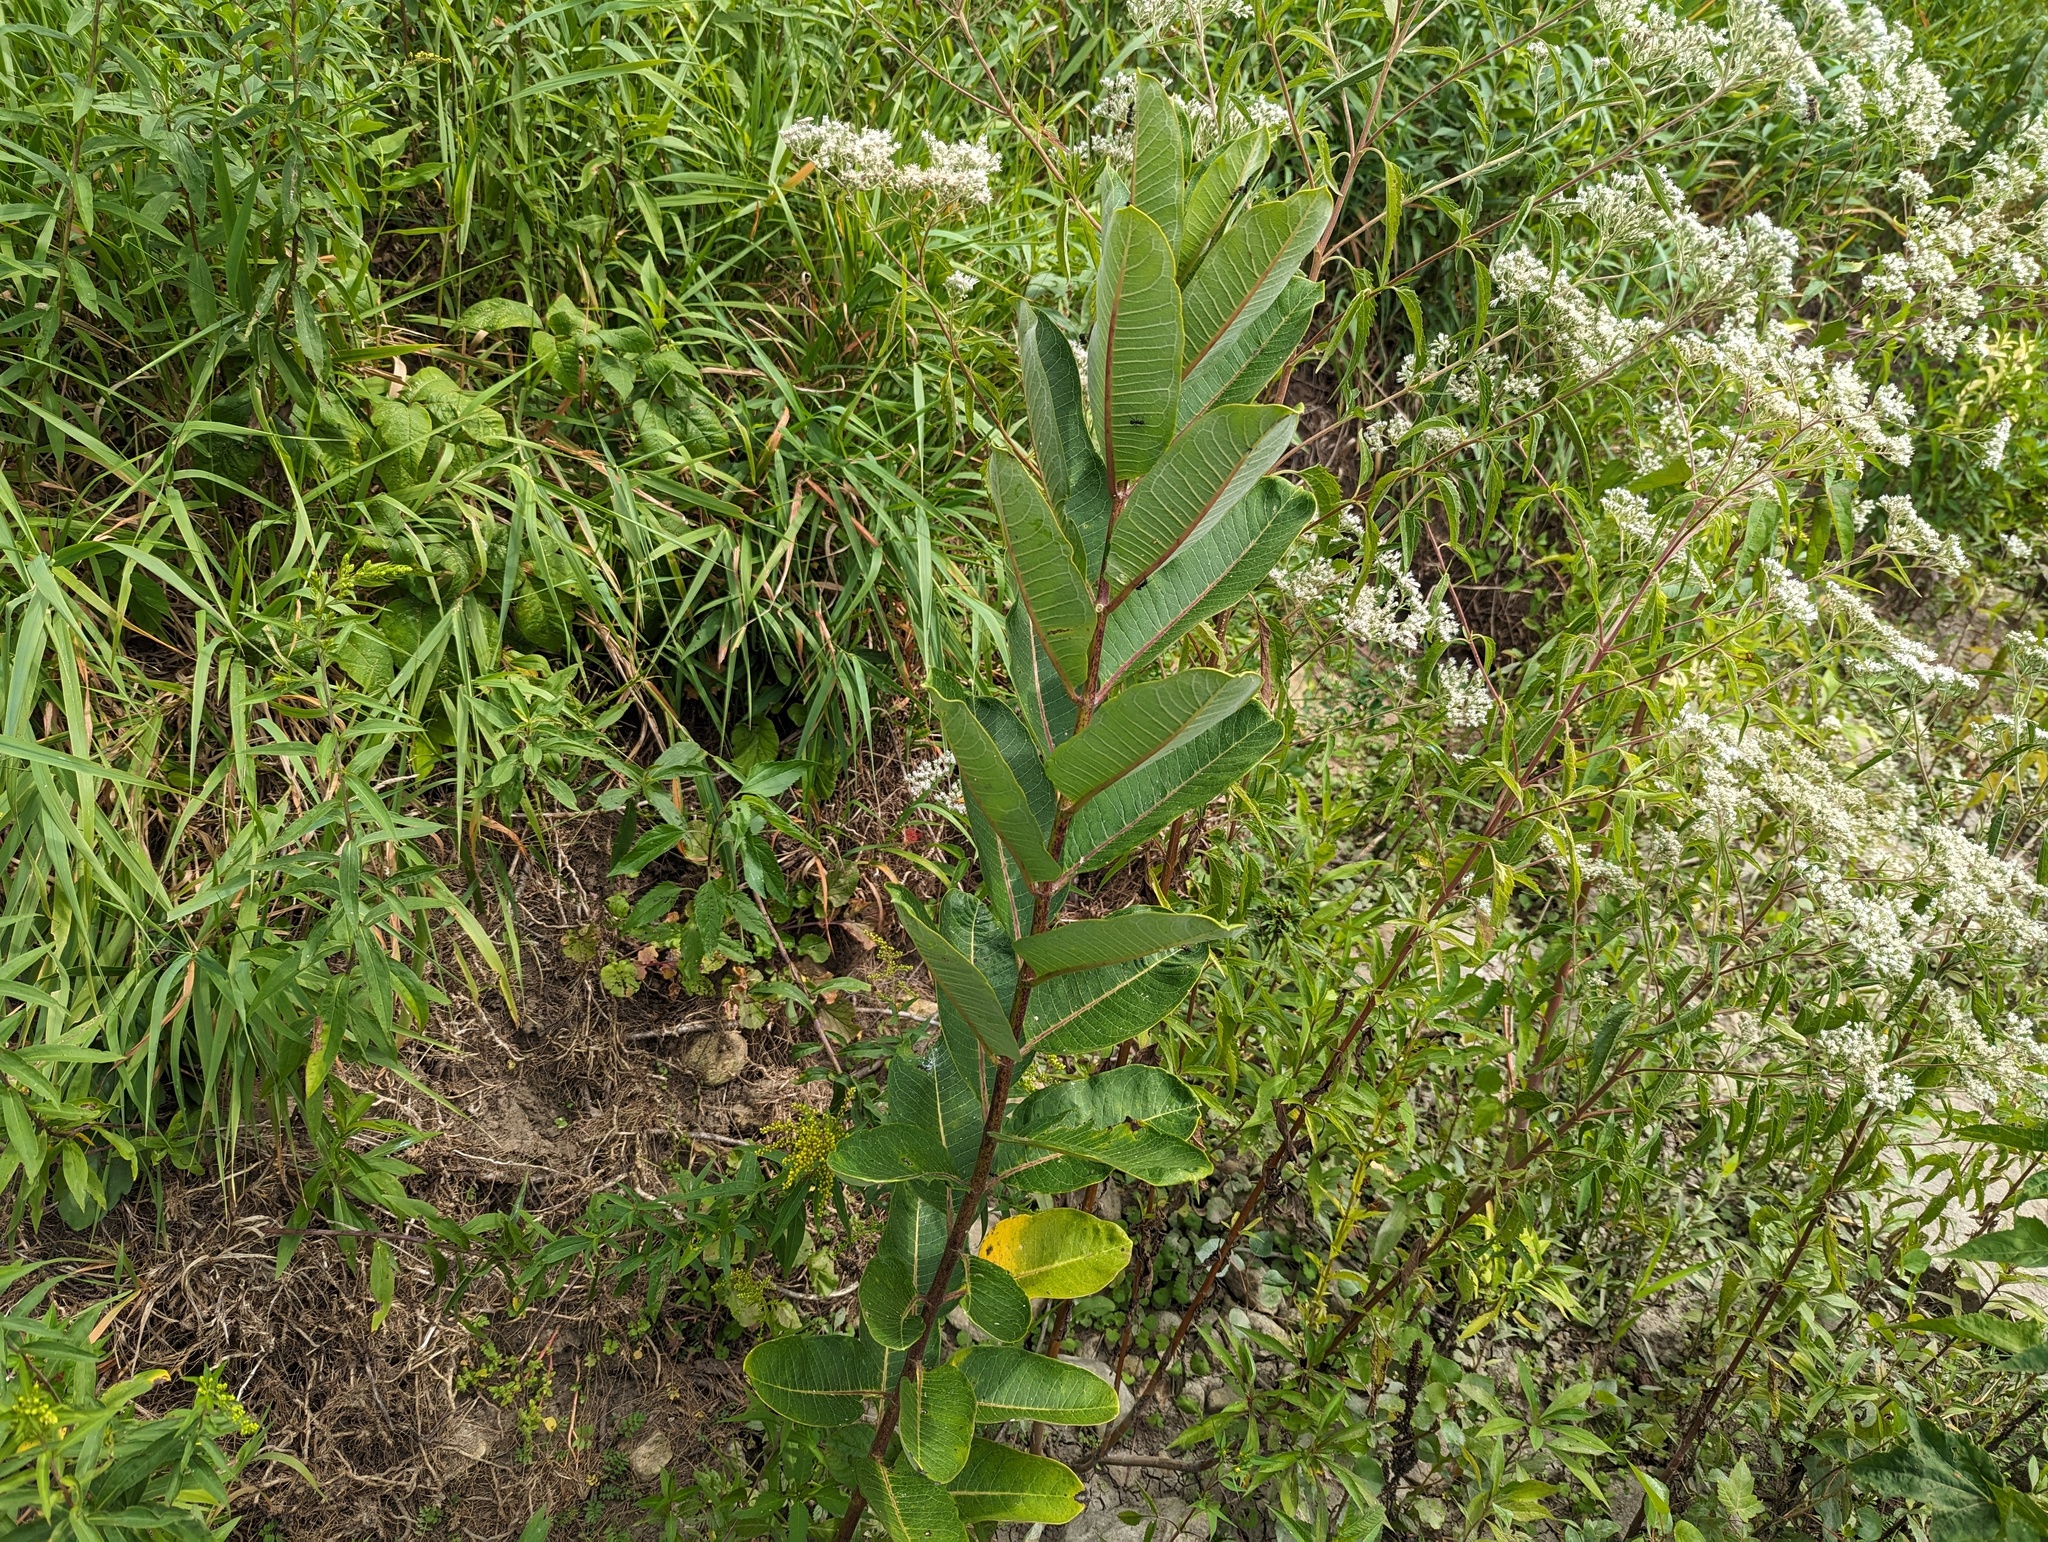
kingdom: Plantae
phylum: Tracheophyta
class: Magnoliopsida
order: Gentianales
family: Apocynaceae
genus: Asclepias
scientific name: Asclepias syriaca
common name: Common milkweed
